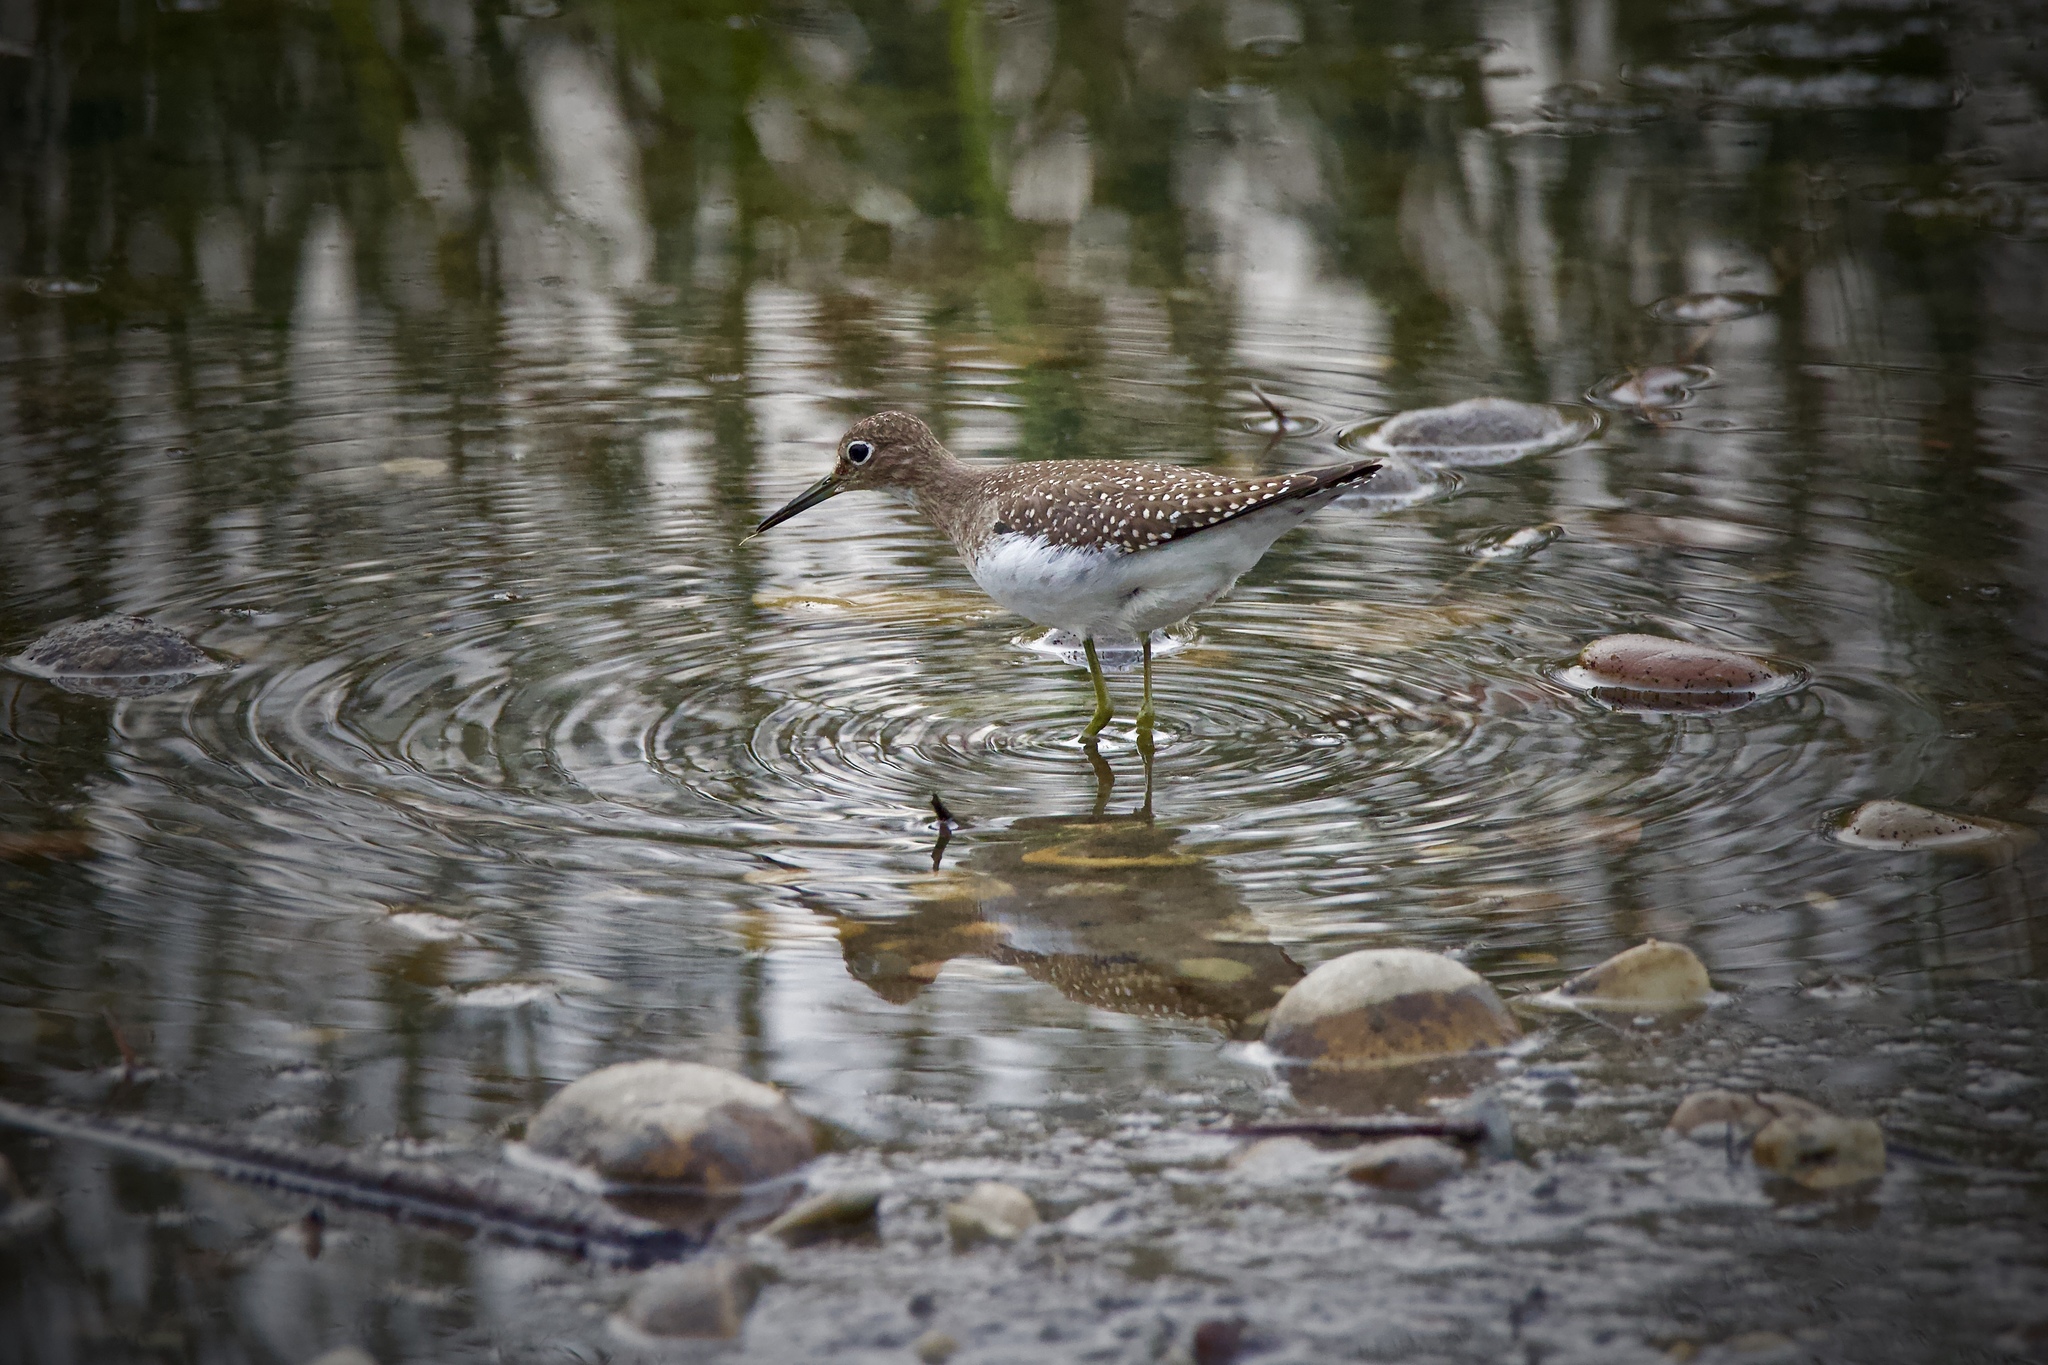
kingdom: Animalia
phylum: Chordata
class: Aves
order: Charadriiformes
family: Scolopacidae
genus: Tringa
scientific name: Tringa solitaria
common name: Solitary sandpiper
